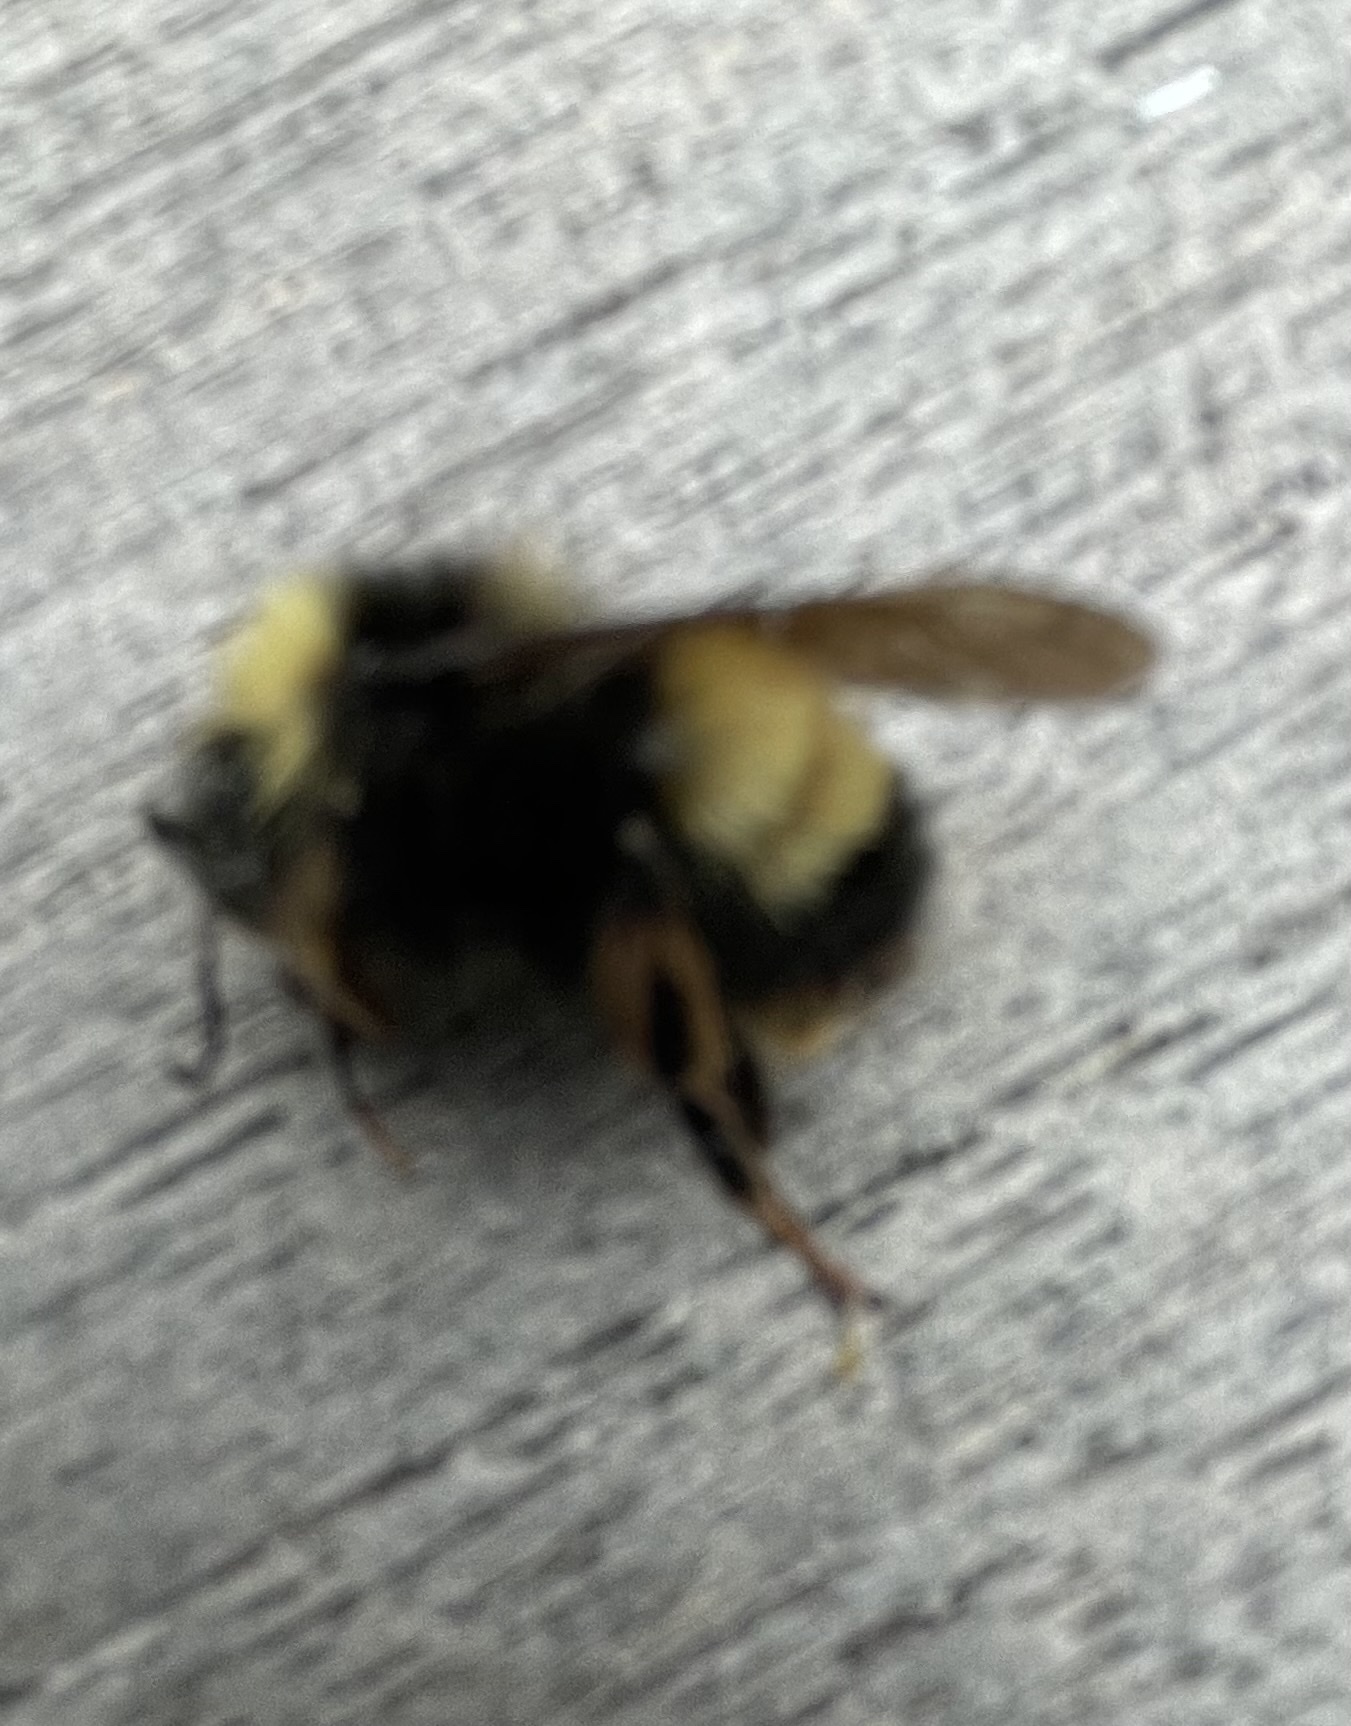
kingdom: Animalia
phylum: Arthropoda
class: Insecta
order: Hymenoptera
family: Apidae
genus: Bombus
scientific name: Bombus terricola
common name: Yellow-banded bumble bee
